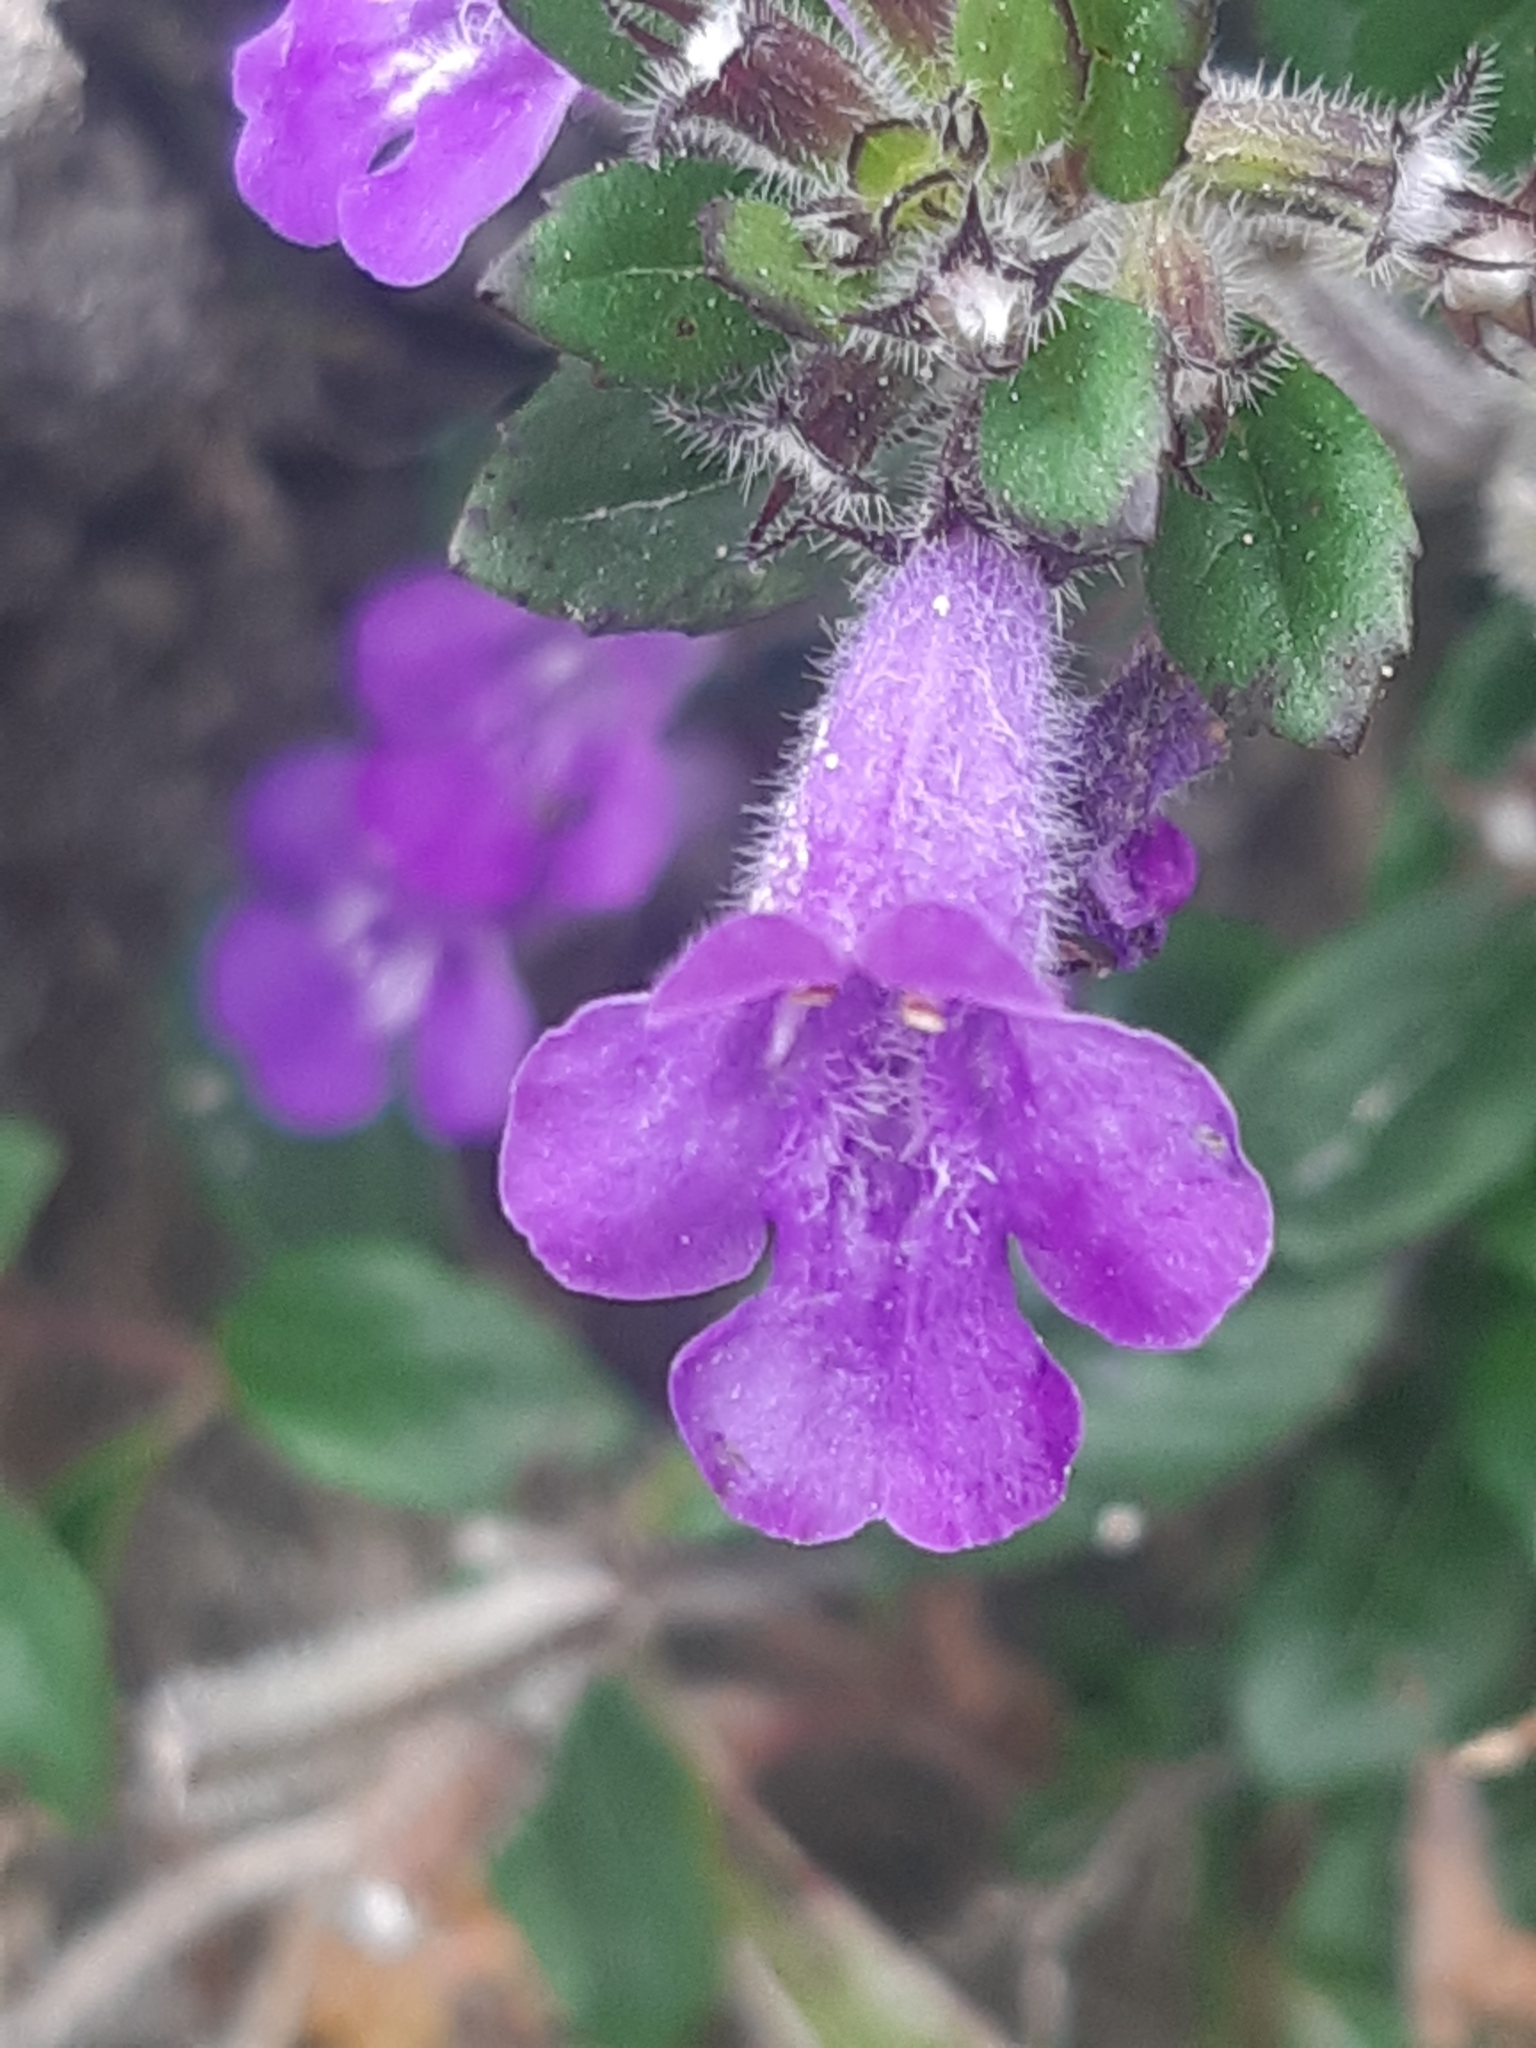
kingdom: Plantae
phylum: Tracheophyta
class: Magnoliopsida
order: Lamiales
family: Lamiaceae
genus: Clinopodium
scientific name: Clinopodium alpinum
